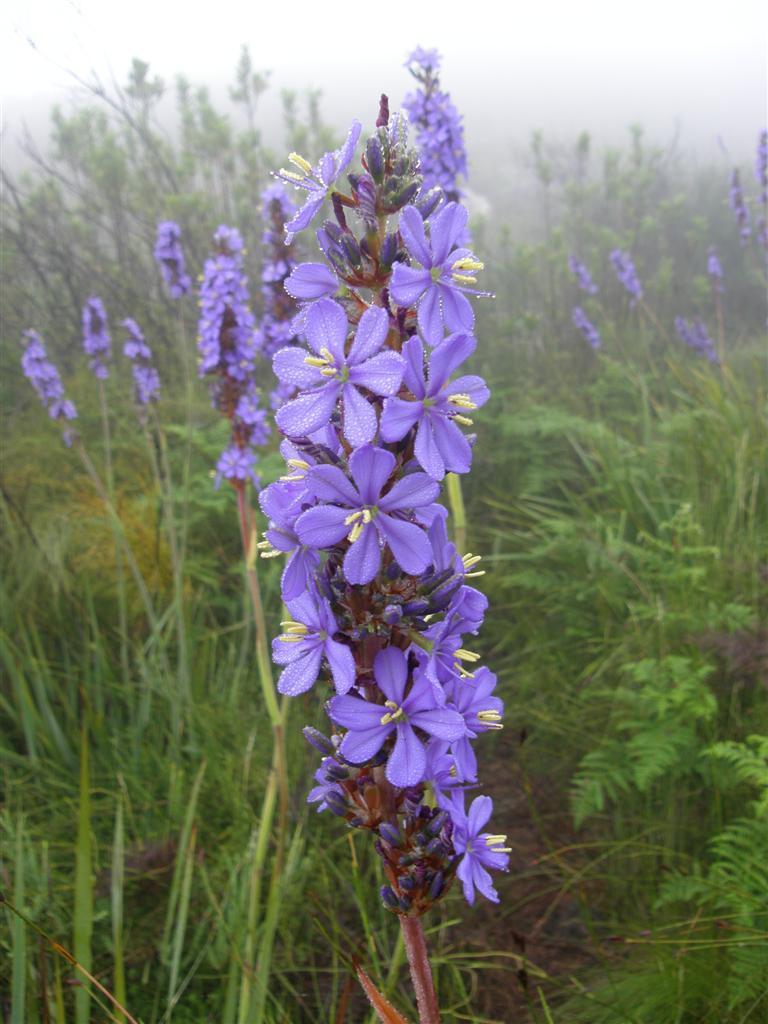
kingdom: Plantae
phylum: Tracheophyta
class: Liliopsida
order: Asparagales
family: Iridaceae
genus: Aristea
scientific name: Aristea capitata
